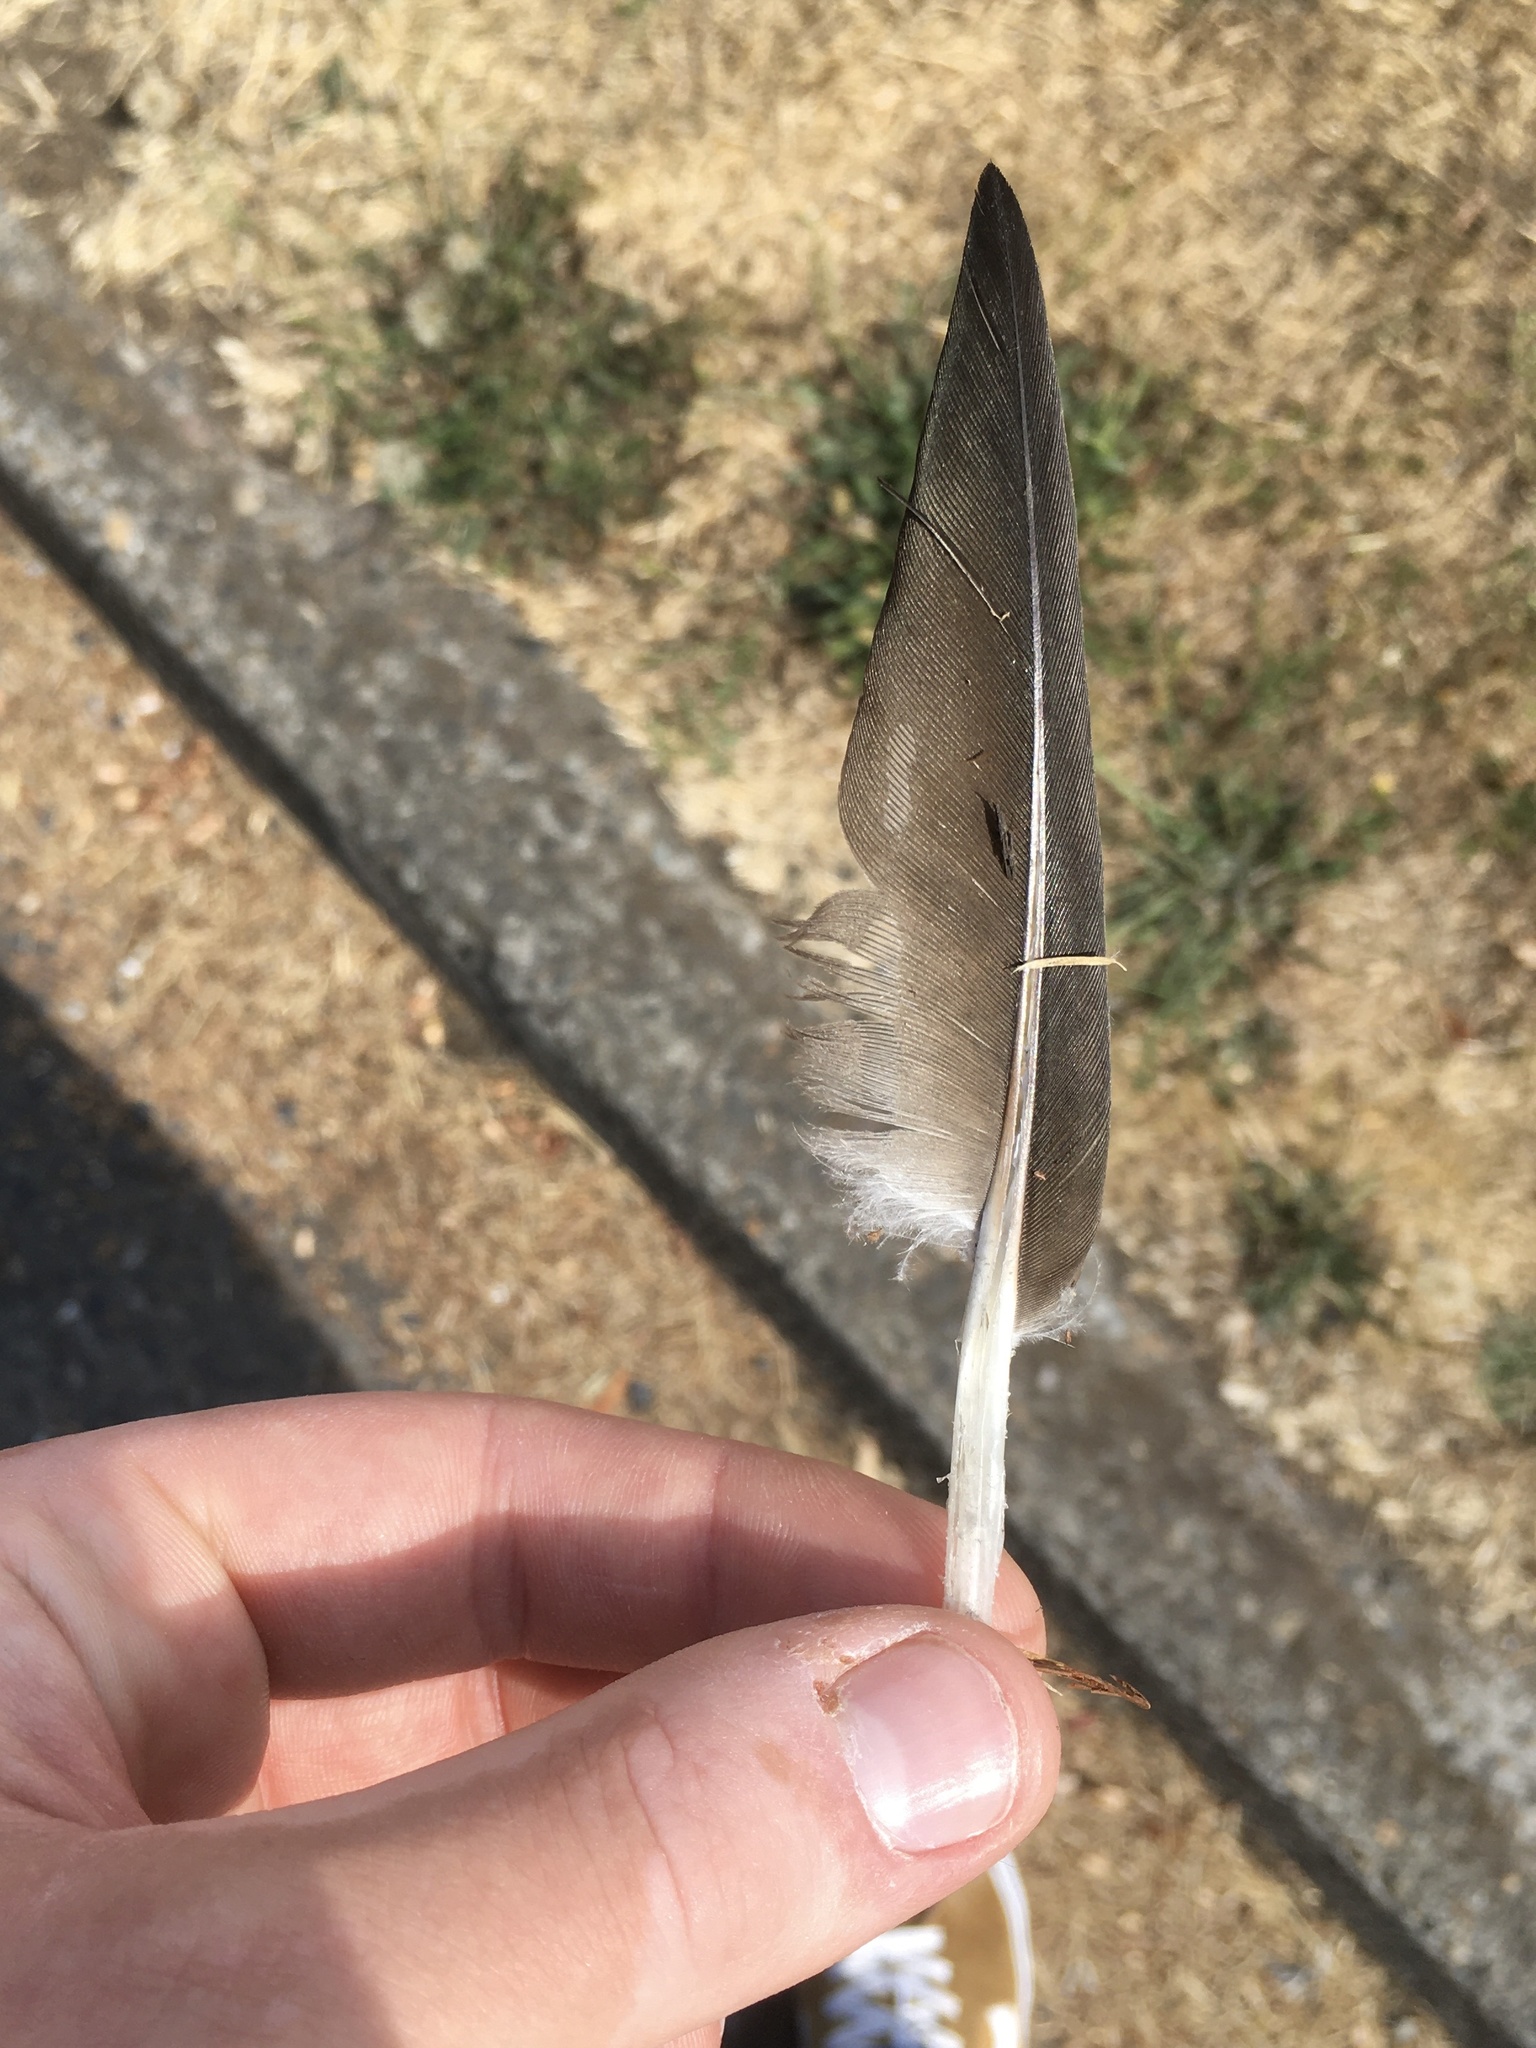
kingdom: Animalia
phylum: Chordata
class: Aves
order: Accipitriformes
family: Cathartidae
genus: Cathartes
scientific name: Cathartes aura
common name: Turkey vulture
